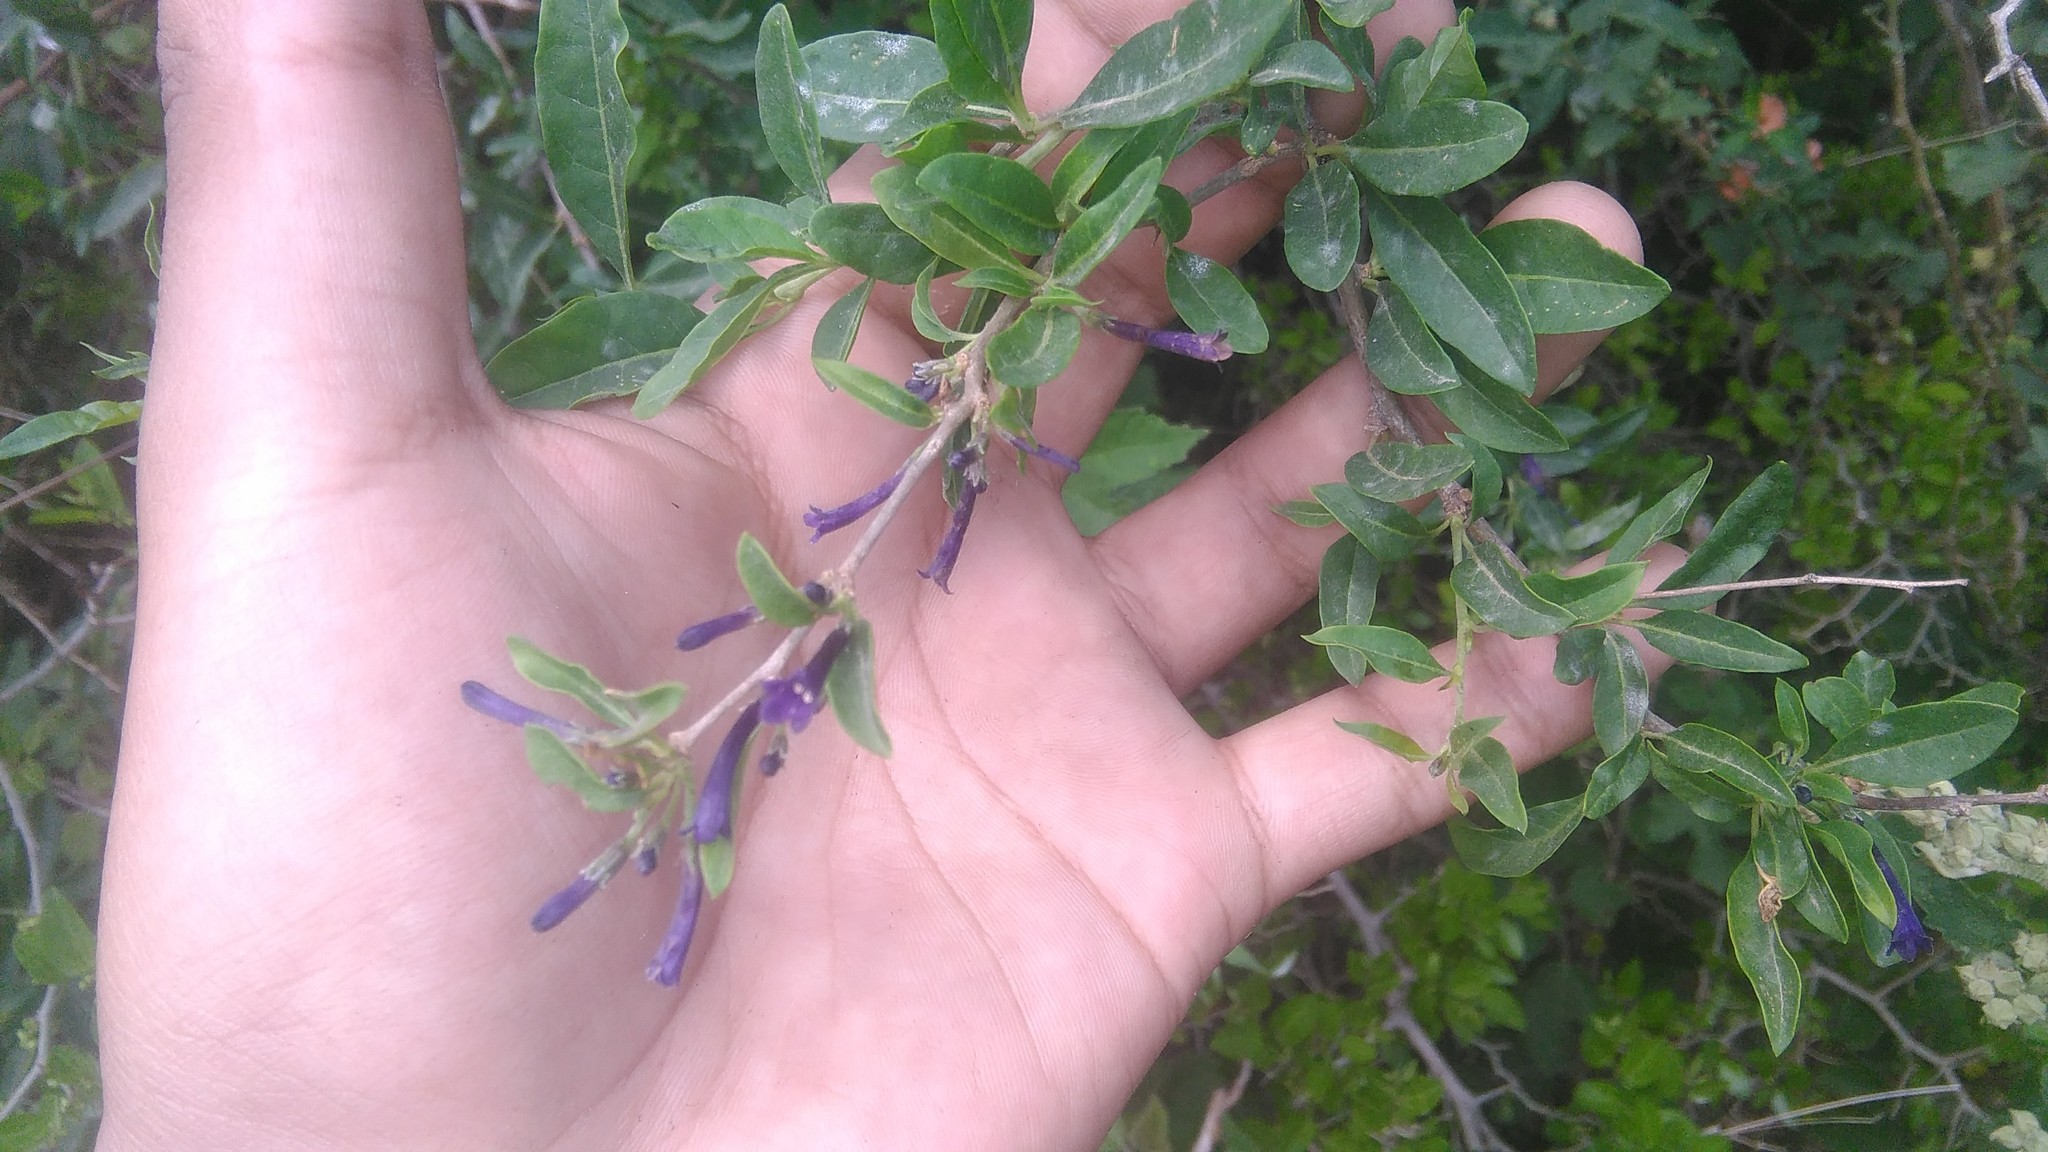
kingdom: Plantae
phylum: Tracheophyta
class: Magnoliopsida
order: Solanales
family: Solanaceae
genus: Lycium
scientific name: Lycium cestroides
